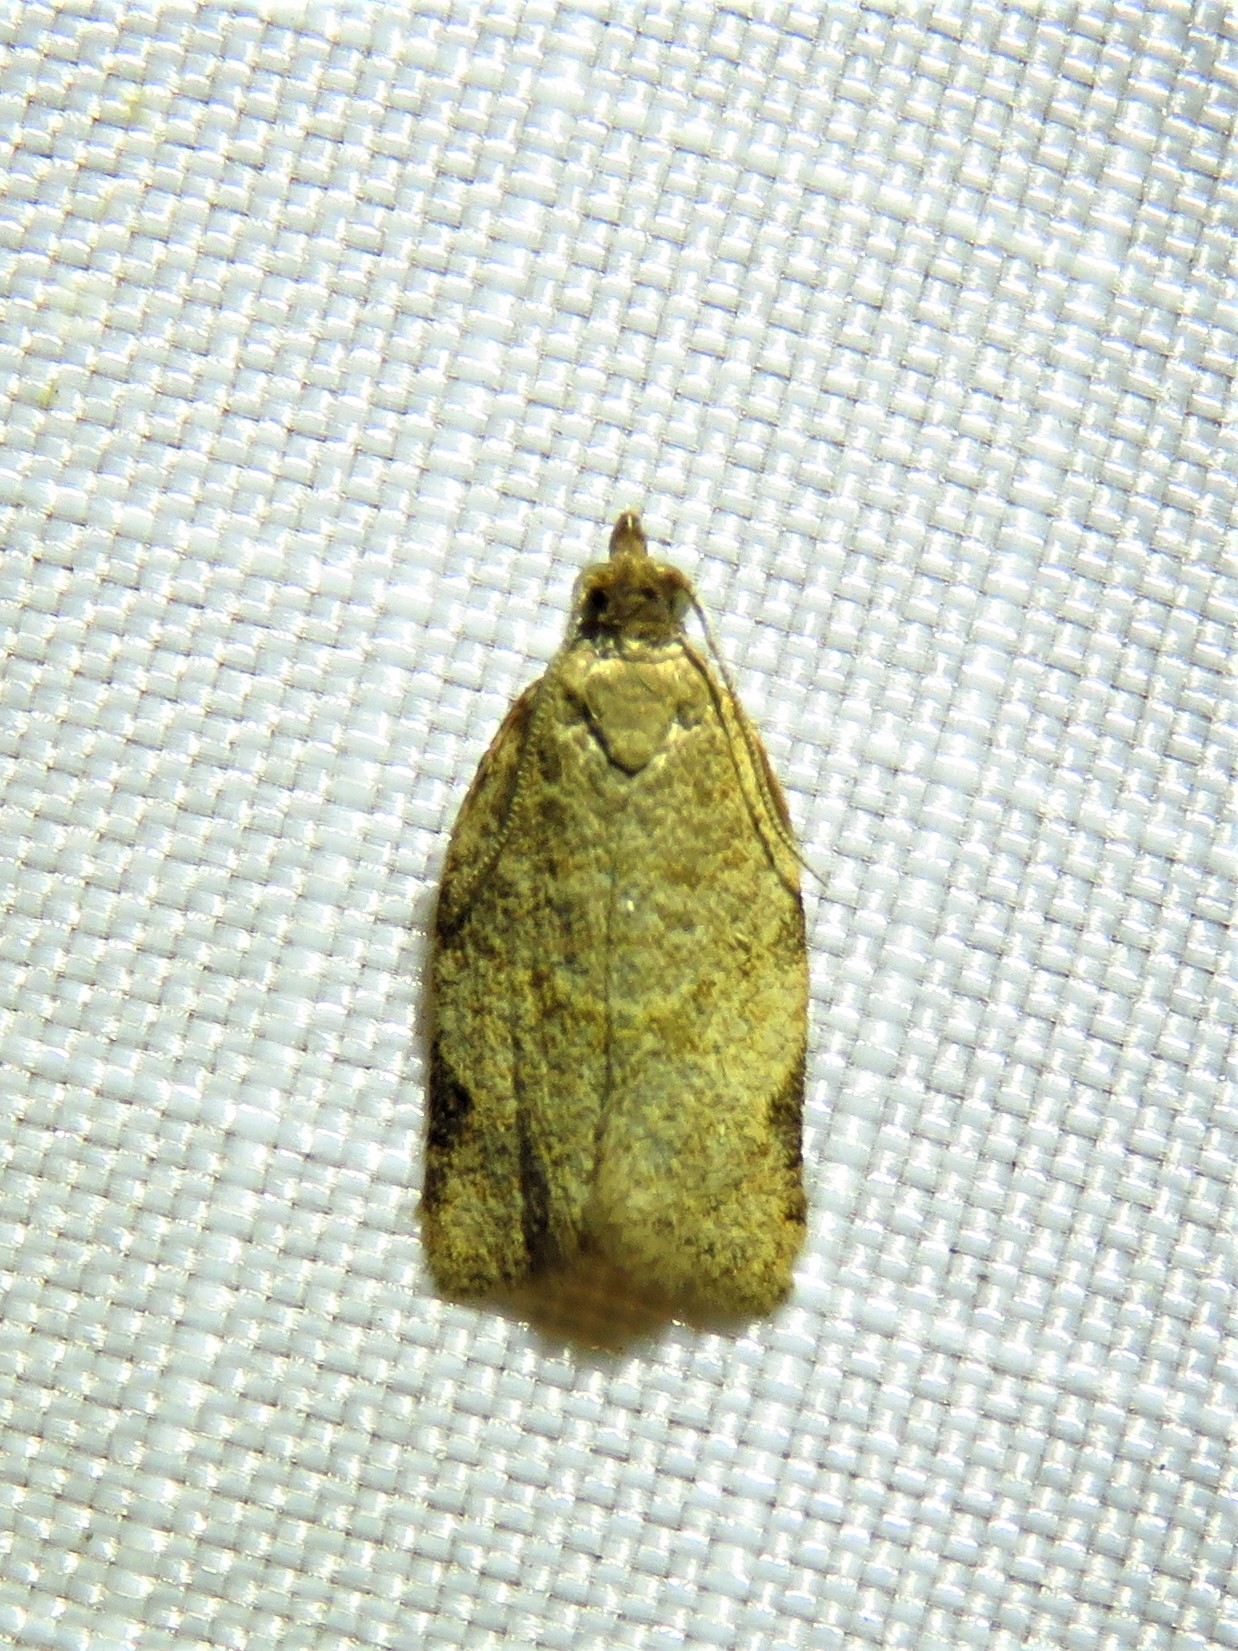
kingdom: Animalia
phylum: Arthropoda
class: Insecta
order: Lepidoptera
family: Tortricidae
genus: Clepsis
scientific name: Clepsis virescana
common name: Greenish apple moth
